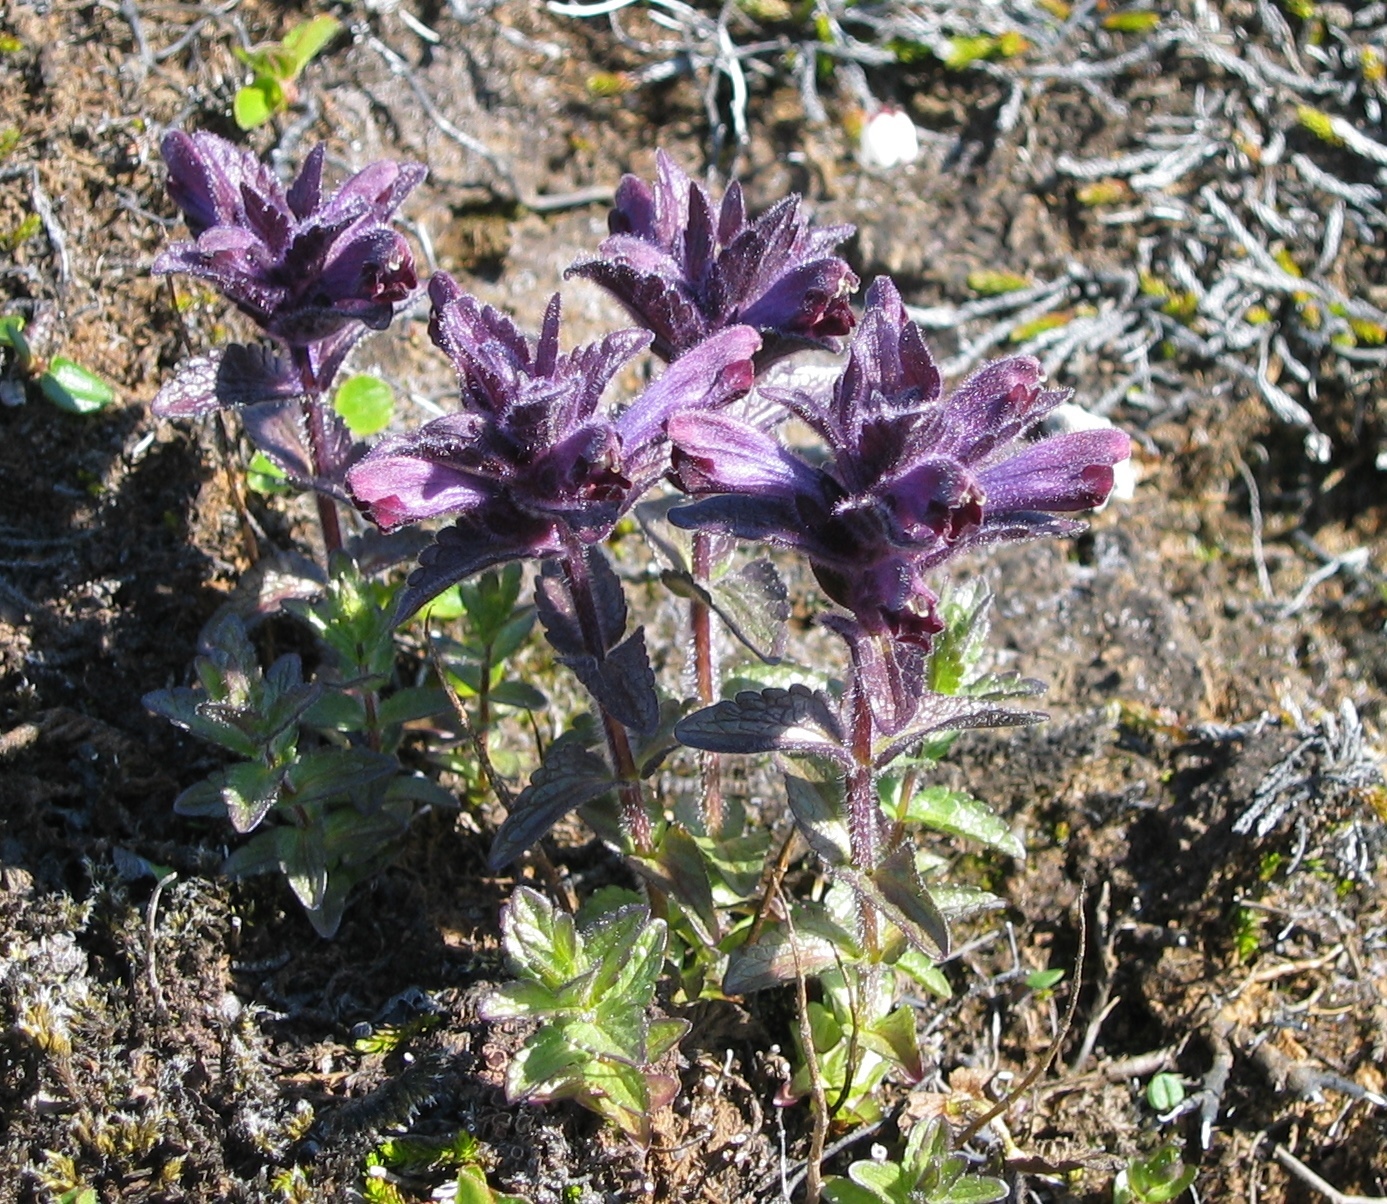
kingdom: Plantae
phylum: Tracheophyta
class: Magnoliopsida
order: Lamiales
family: Orobanchaceae
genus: Bartsia
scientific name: Bartsia alpina
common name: Alpine bartsia
